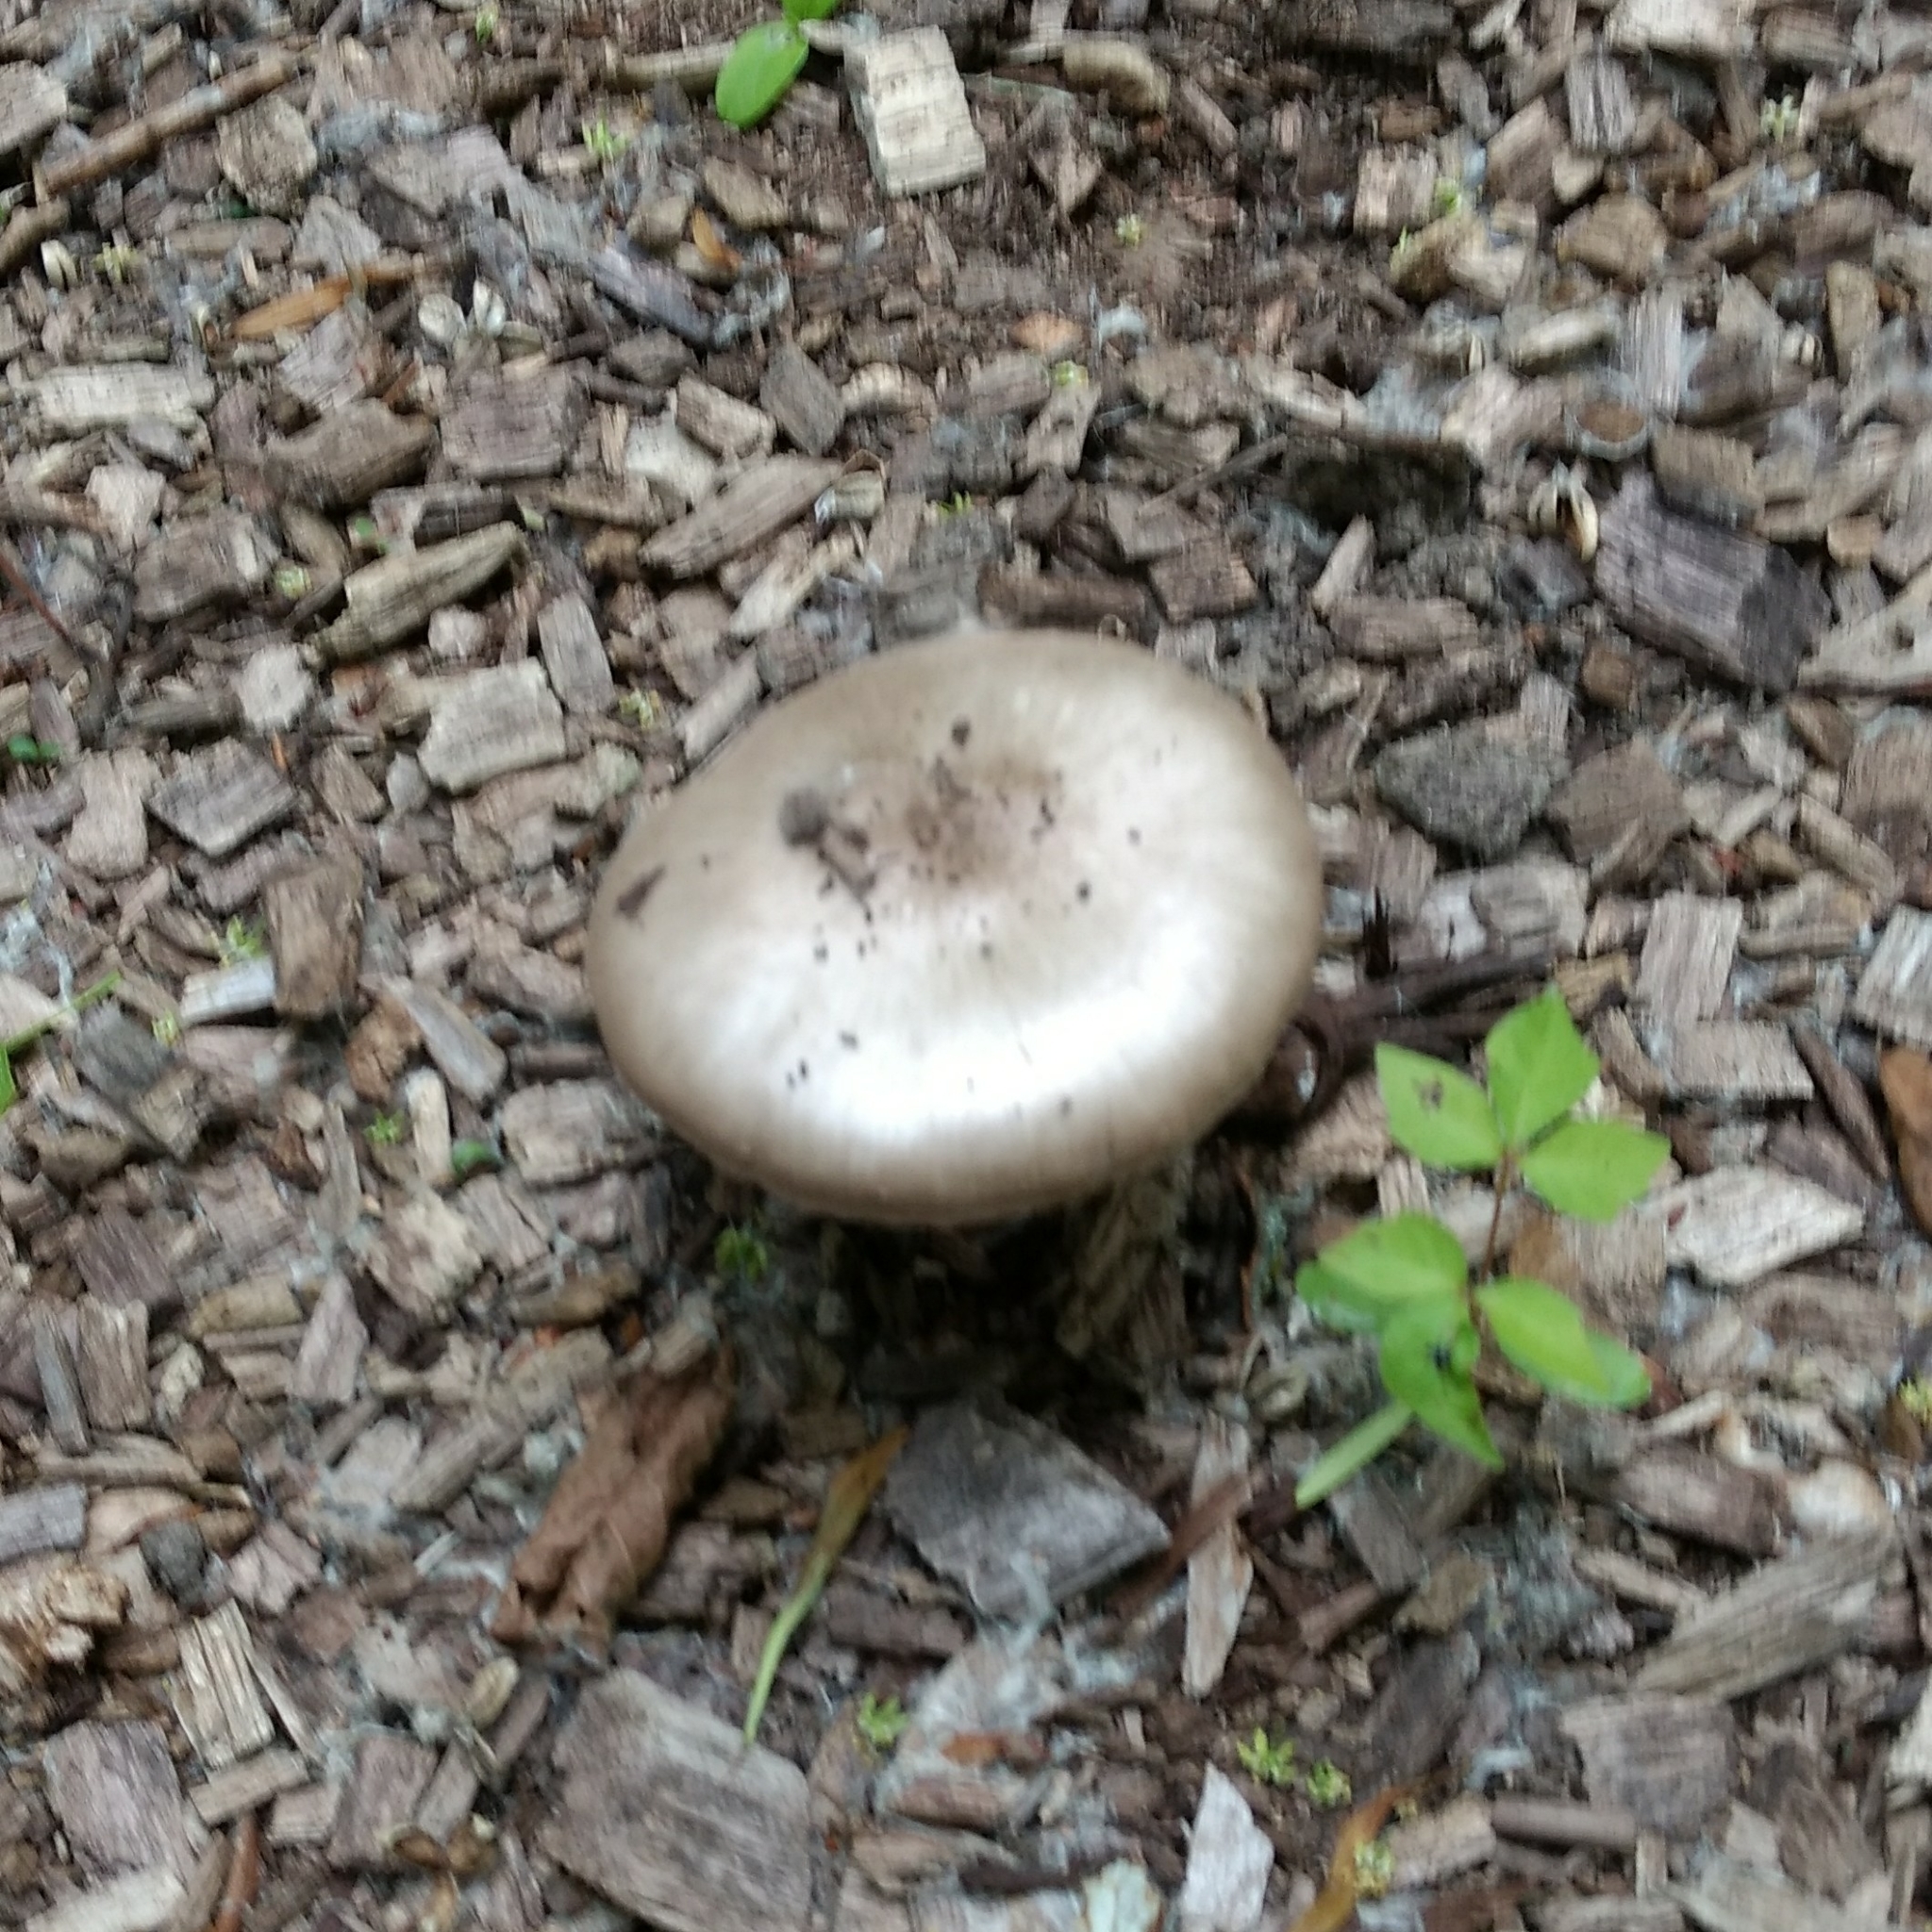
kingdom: Fungi
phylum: Basidiomycota
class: Agaricomycetes
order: Agaricales
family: Pluteaceae
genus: Pluteus
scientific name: Pluteus cervinus
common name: Deer shield
